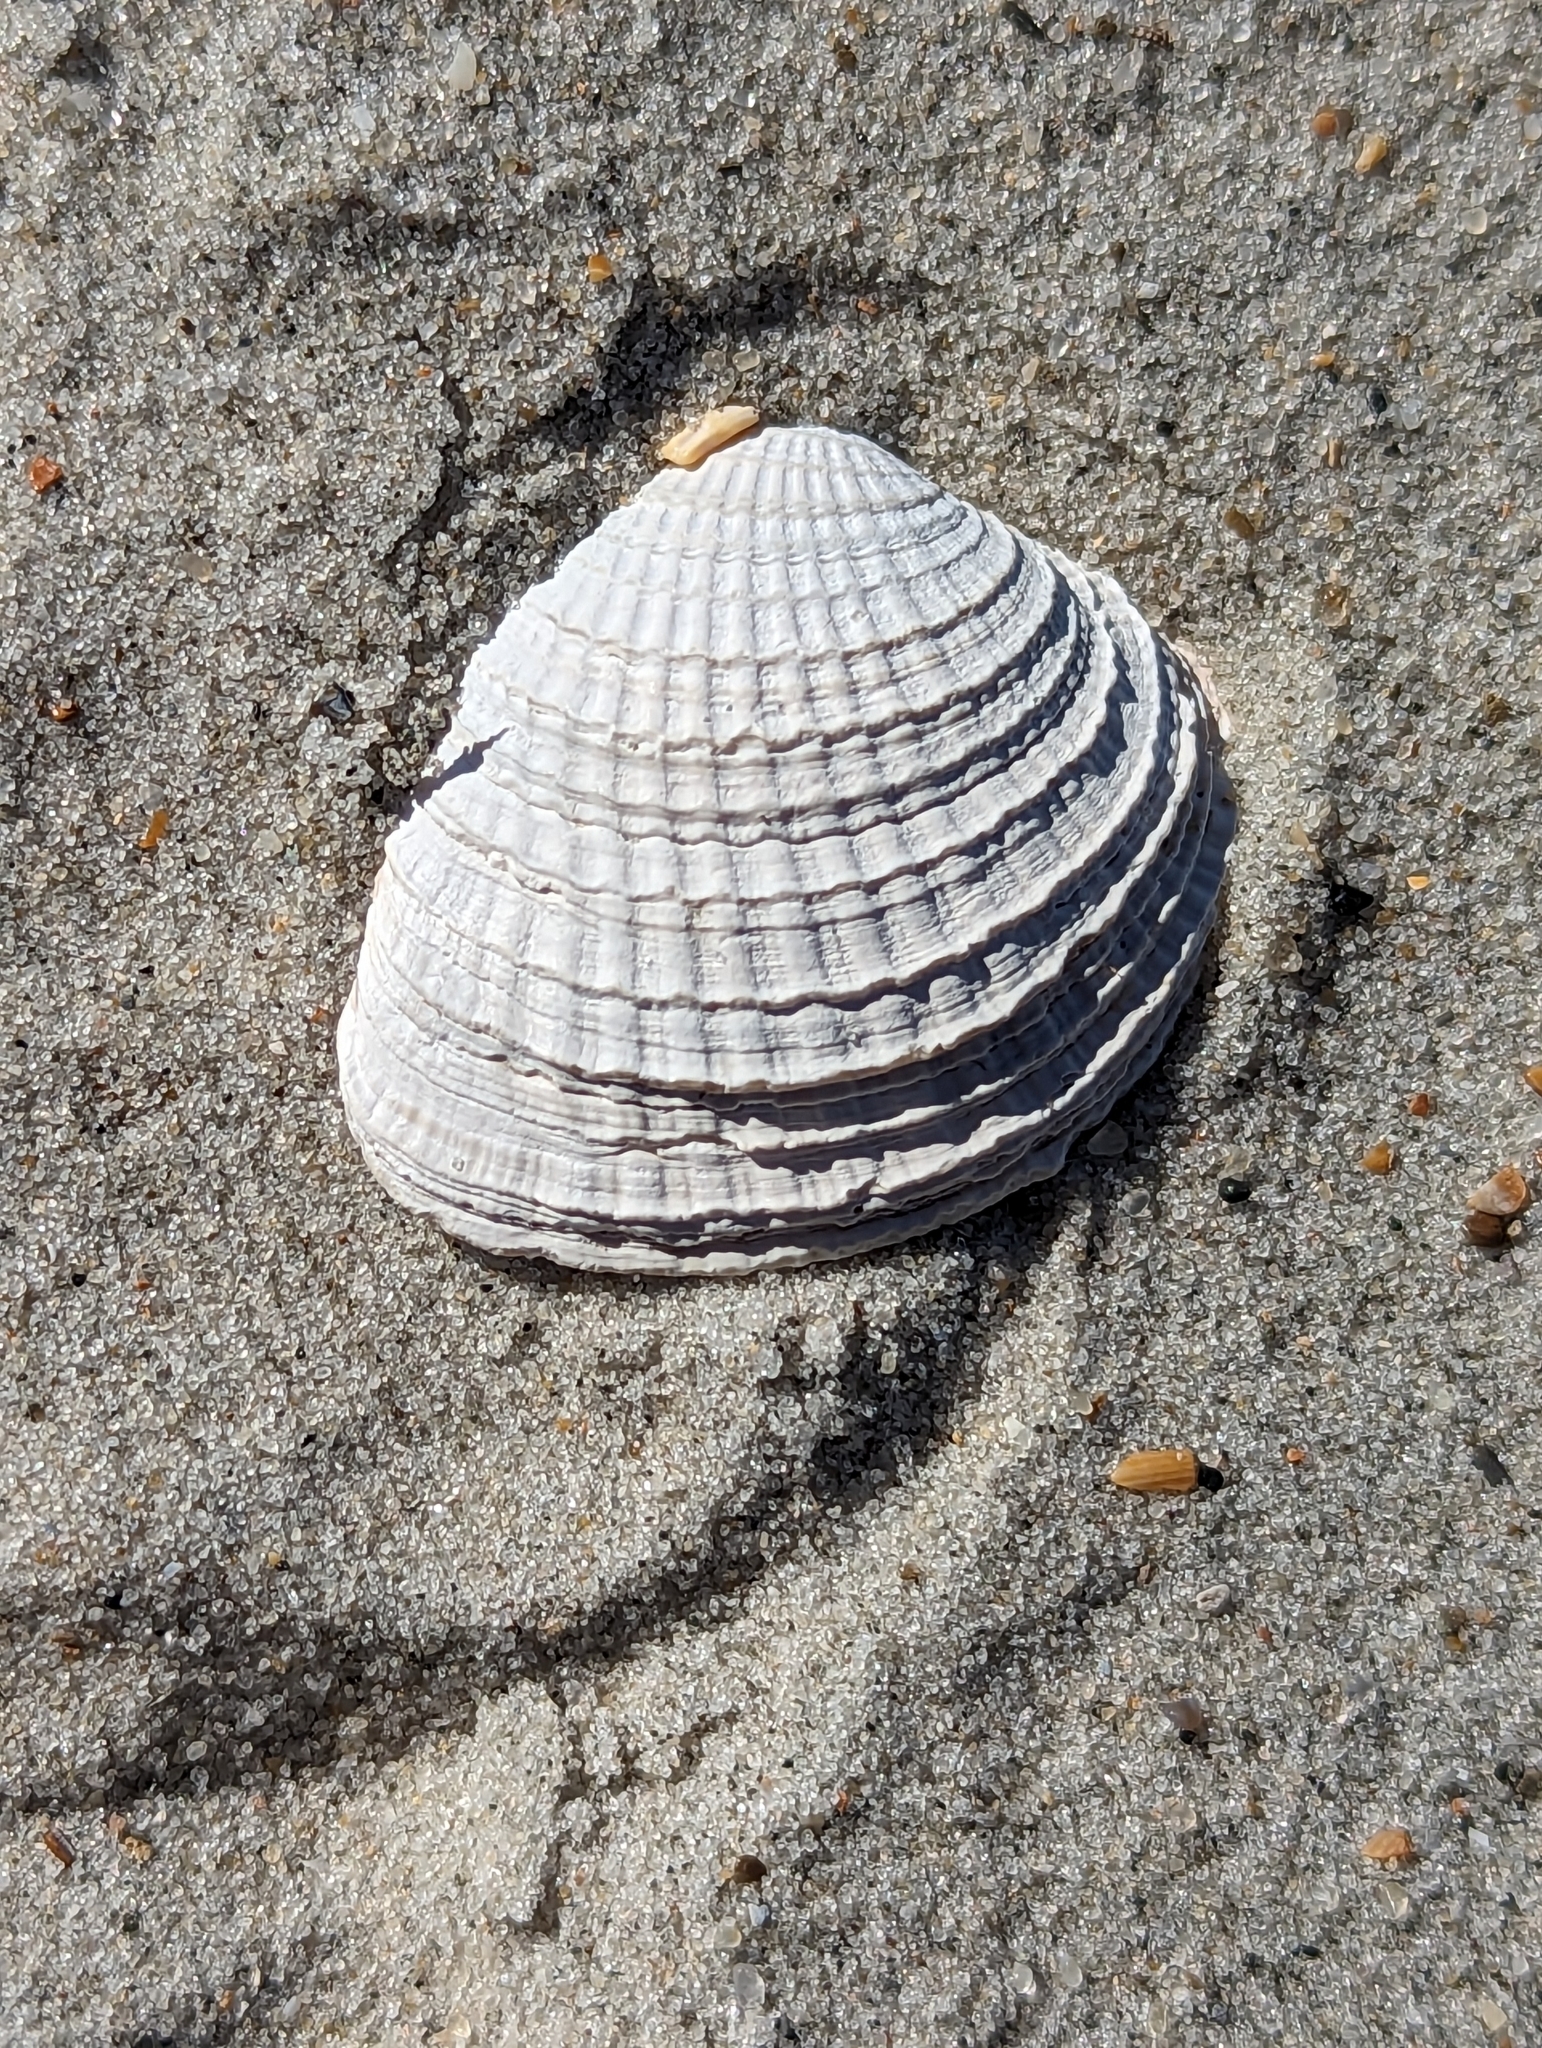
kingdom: Animalia
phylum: Mollusca
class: Bivalvia
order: Venerida
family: Veneridae
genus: Chione
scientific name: Chione elevata
